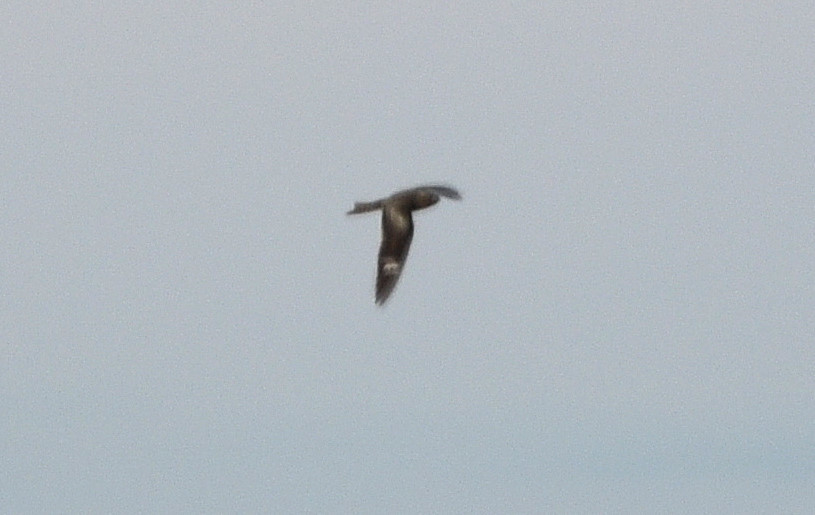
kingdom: Animalia
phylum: Chordata
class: Aves
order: Caprimulgiformes
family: Caprimulgidae
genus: Chordeiles
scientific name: Chordeiles minor
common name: Common nighthawk
